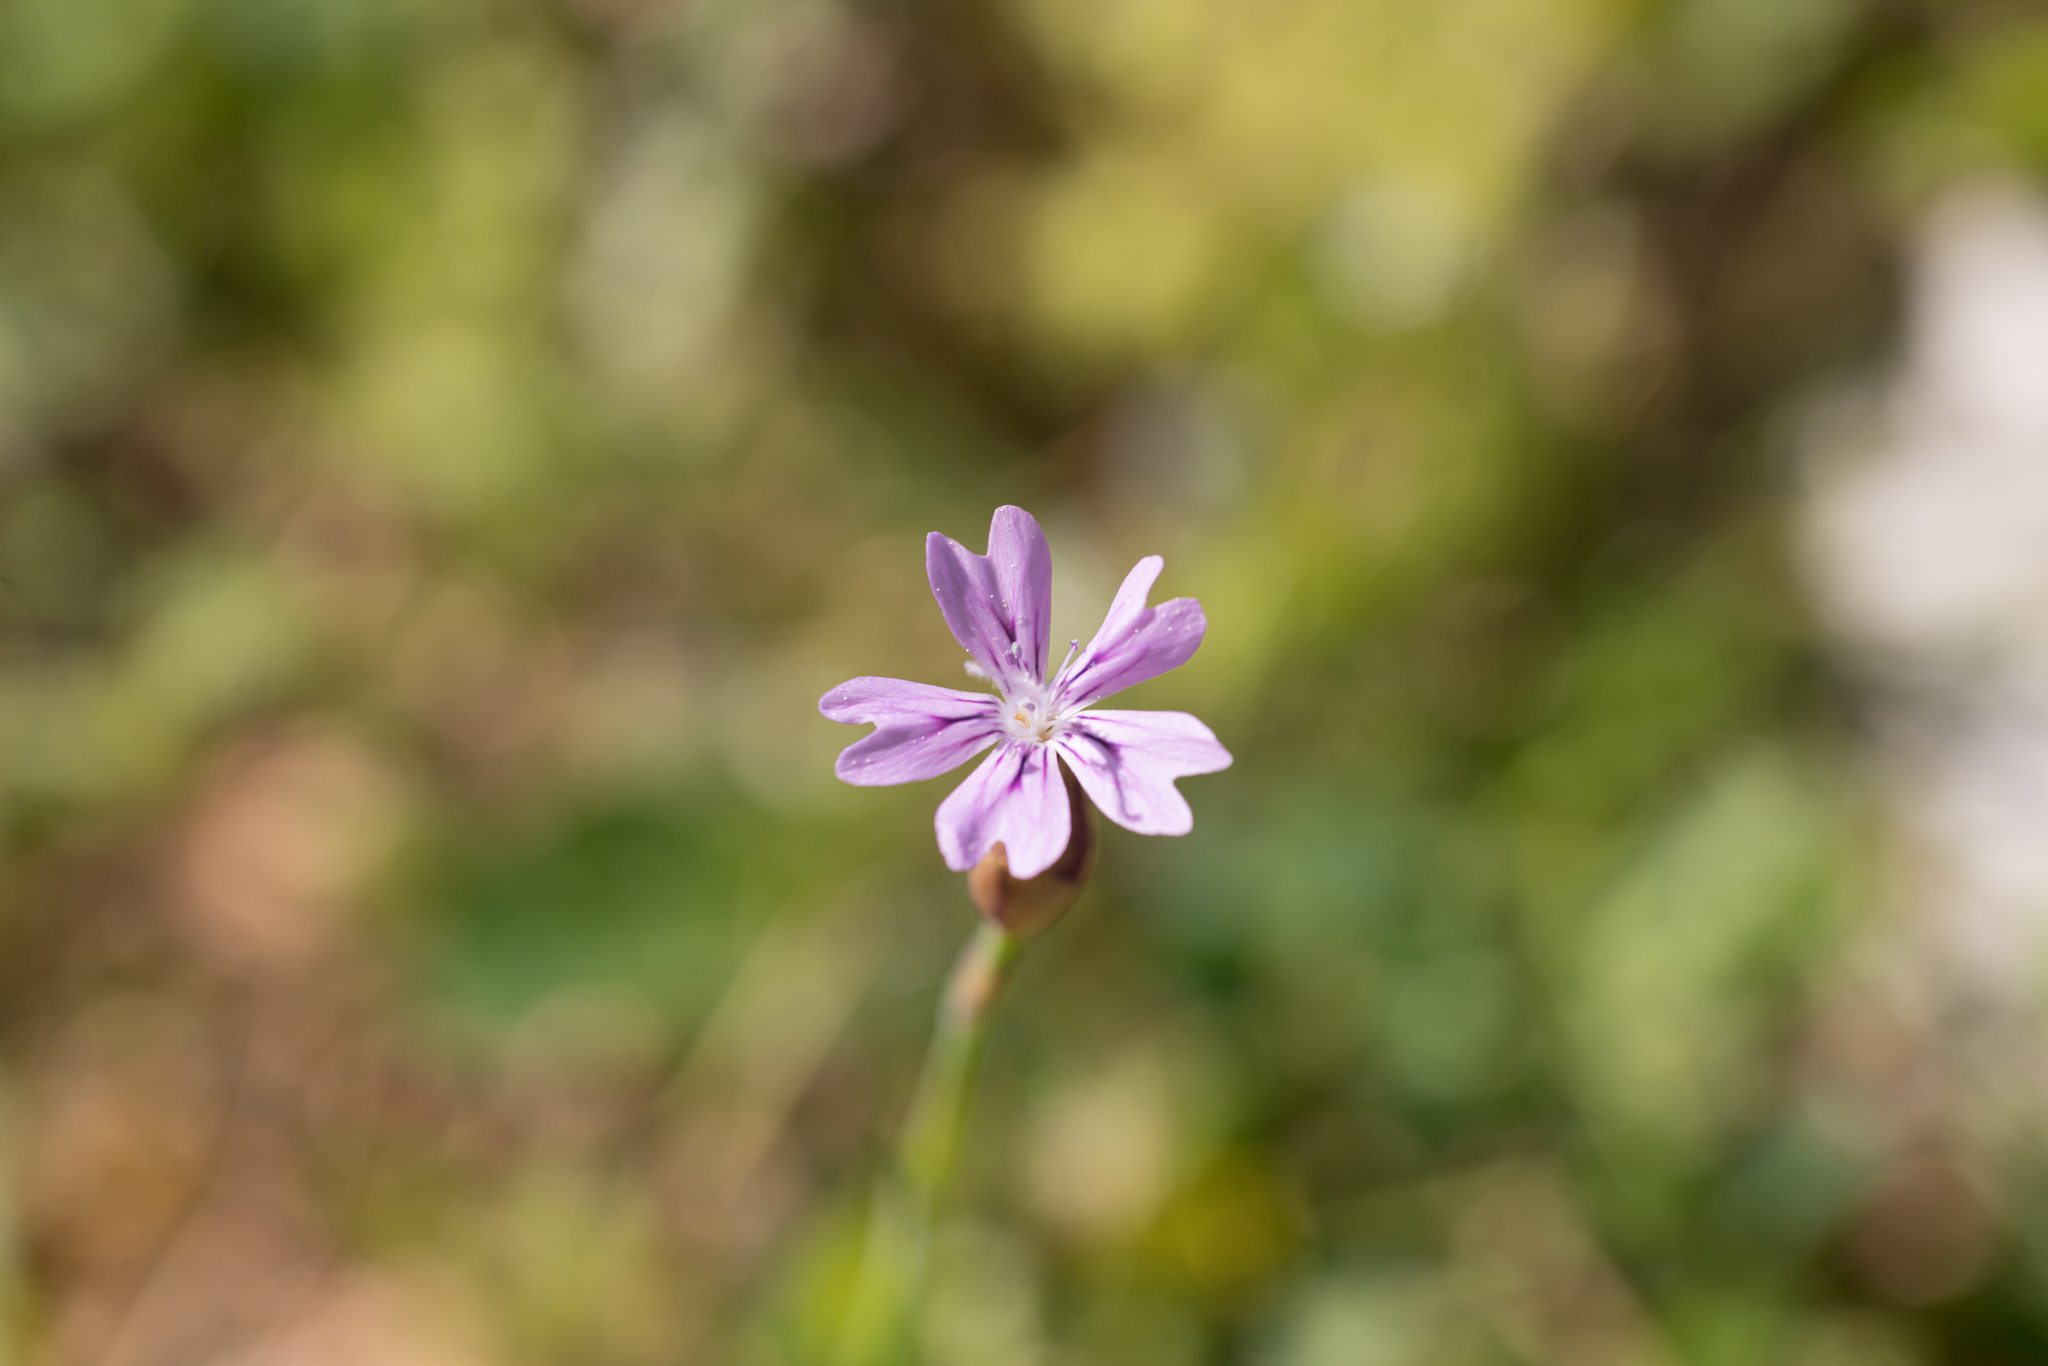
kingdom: Plantae
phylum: Tracheophyta
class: Magnoliopsida
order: Caryophyllales
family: Caryophyllaceae
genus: Petrorhagia
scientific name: Petrorhagia dubia
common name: Hairypink
